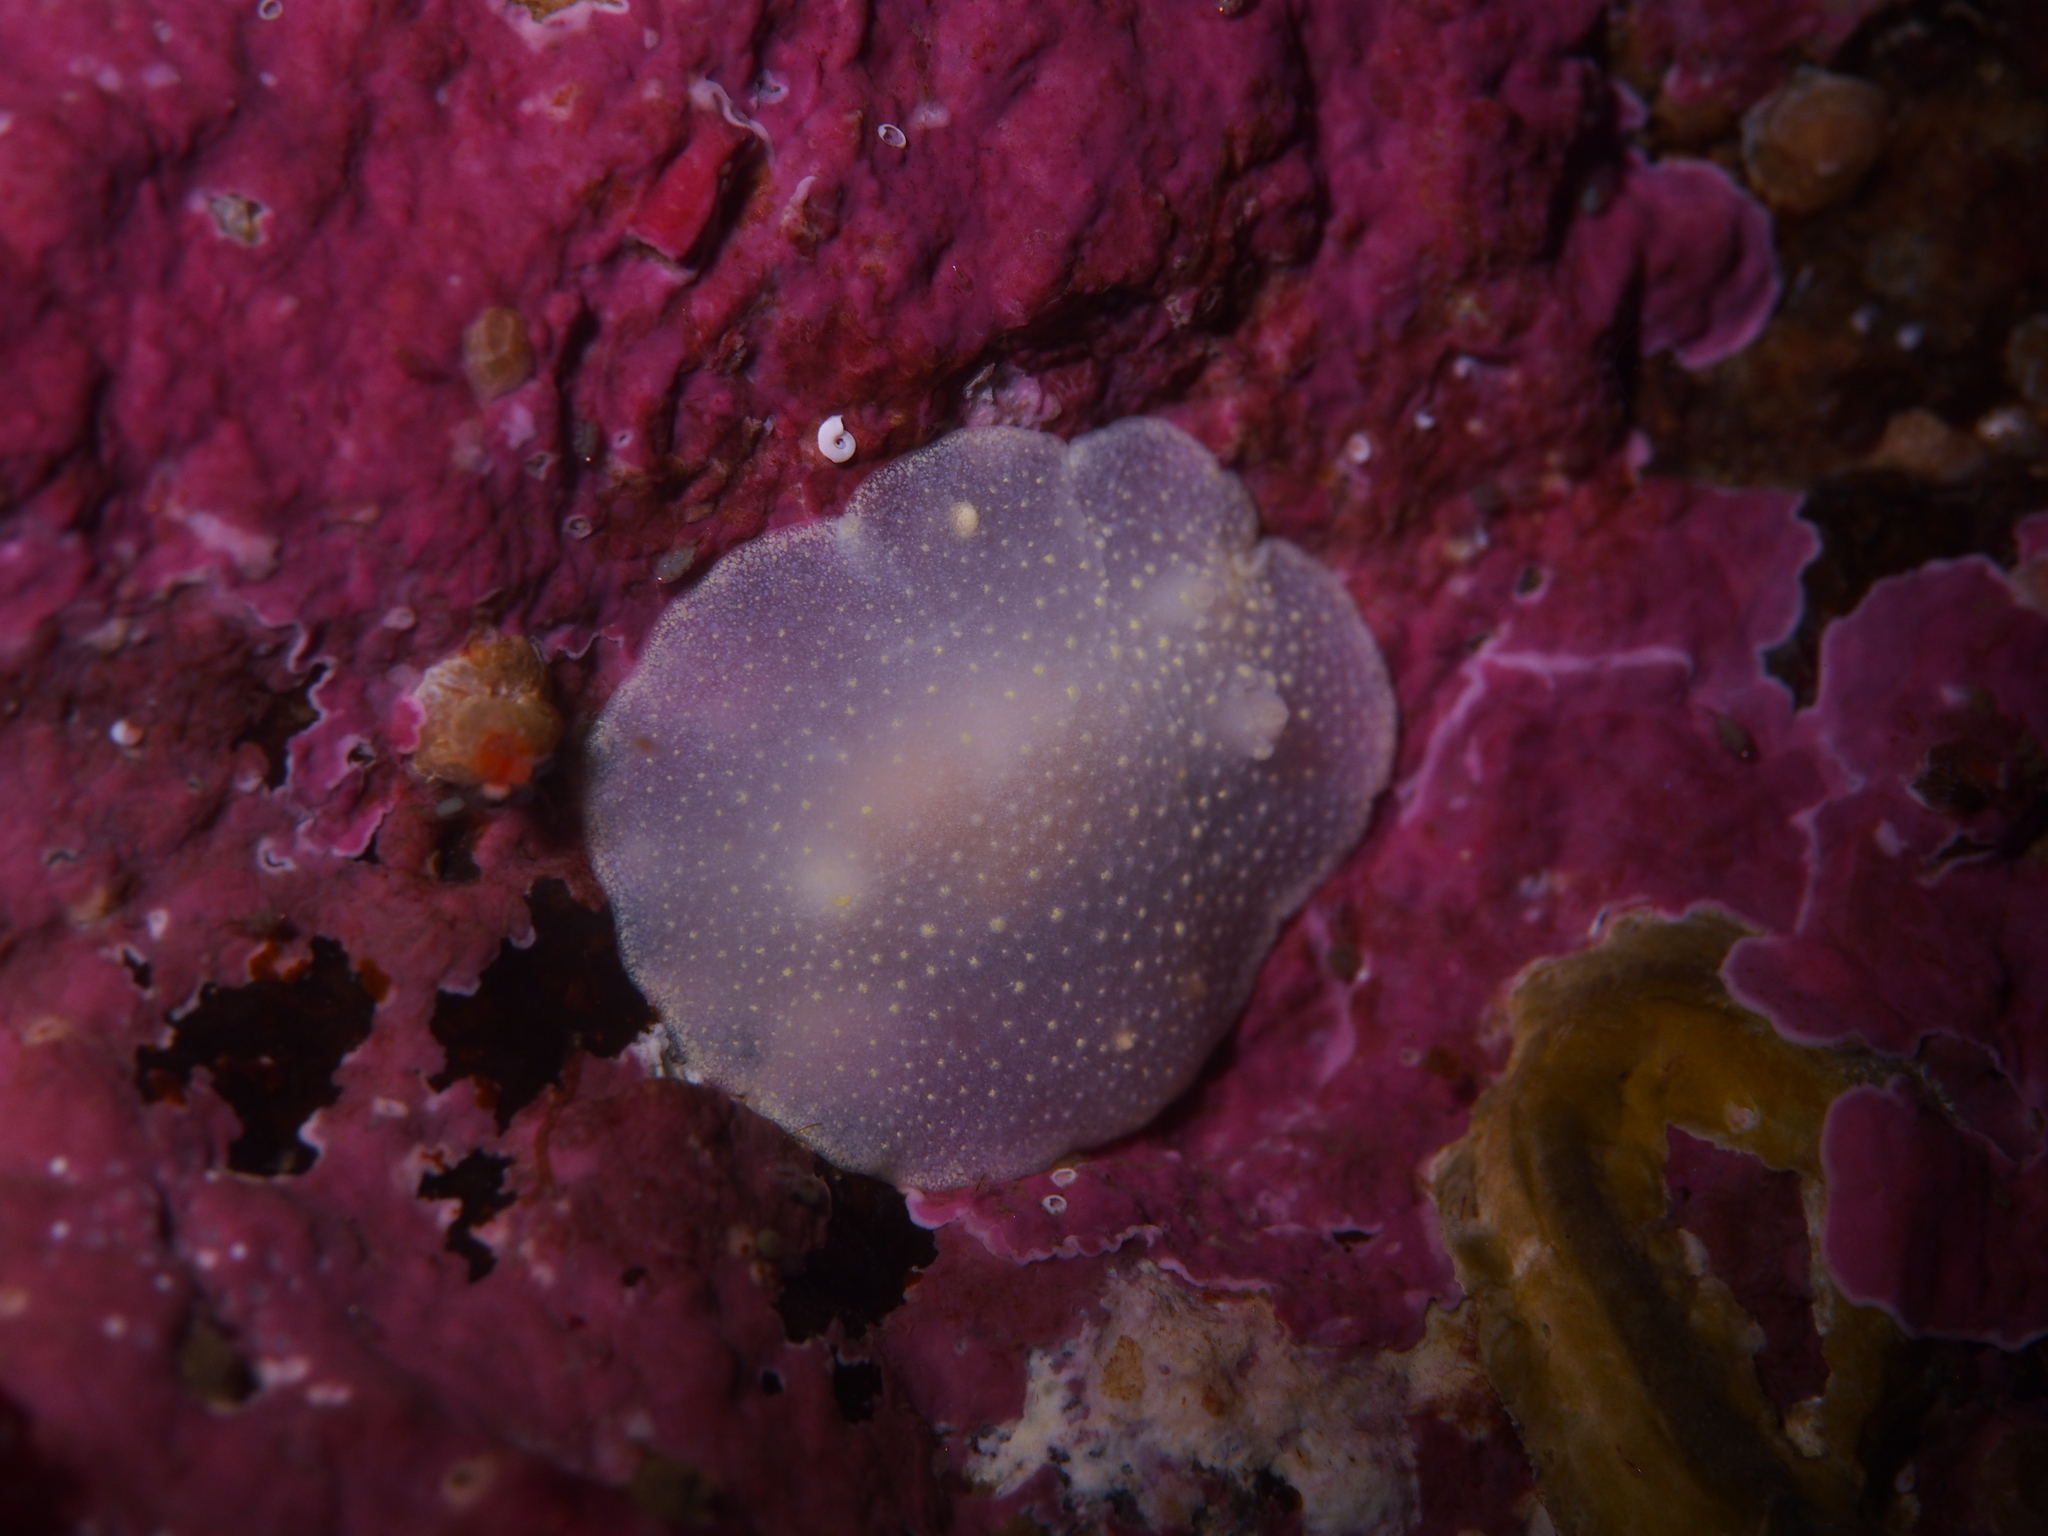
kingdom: Animalia
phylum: Mollusca
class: Gastropoda
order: Nudibranchia
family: Cadlinidae
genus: Cadlina
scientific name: Cadlina laevis
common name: White atlantic cadlina
